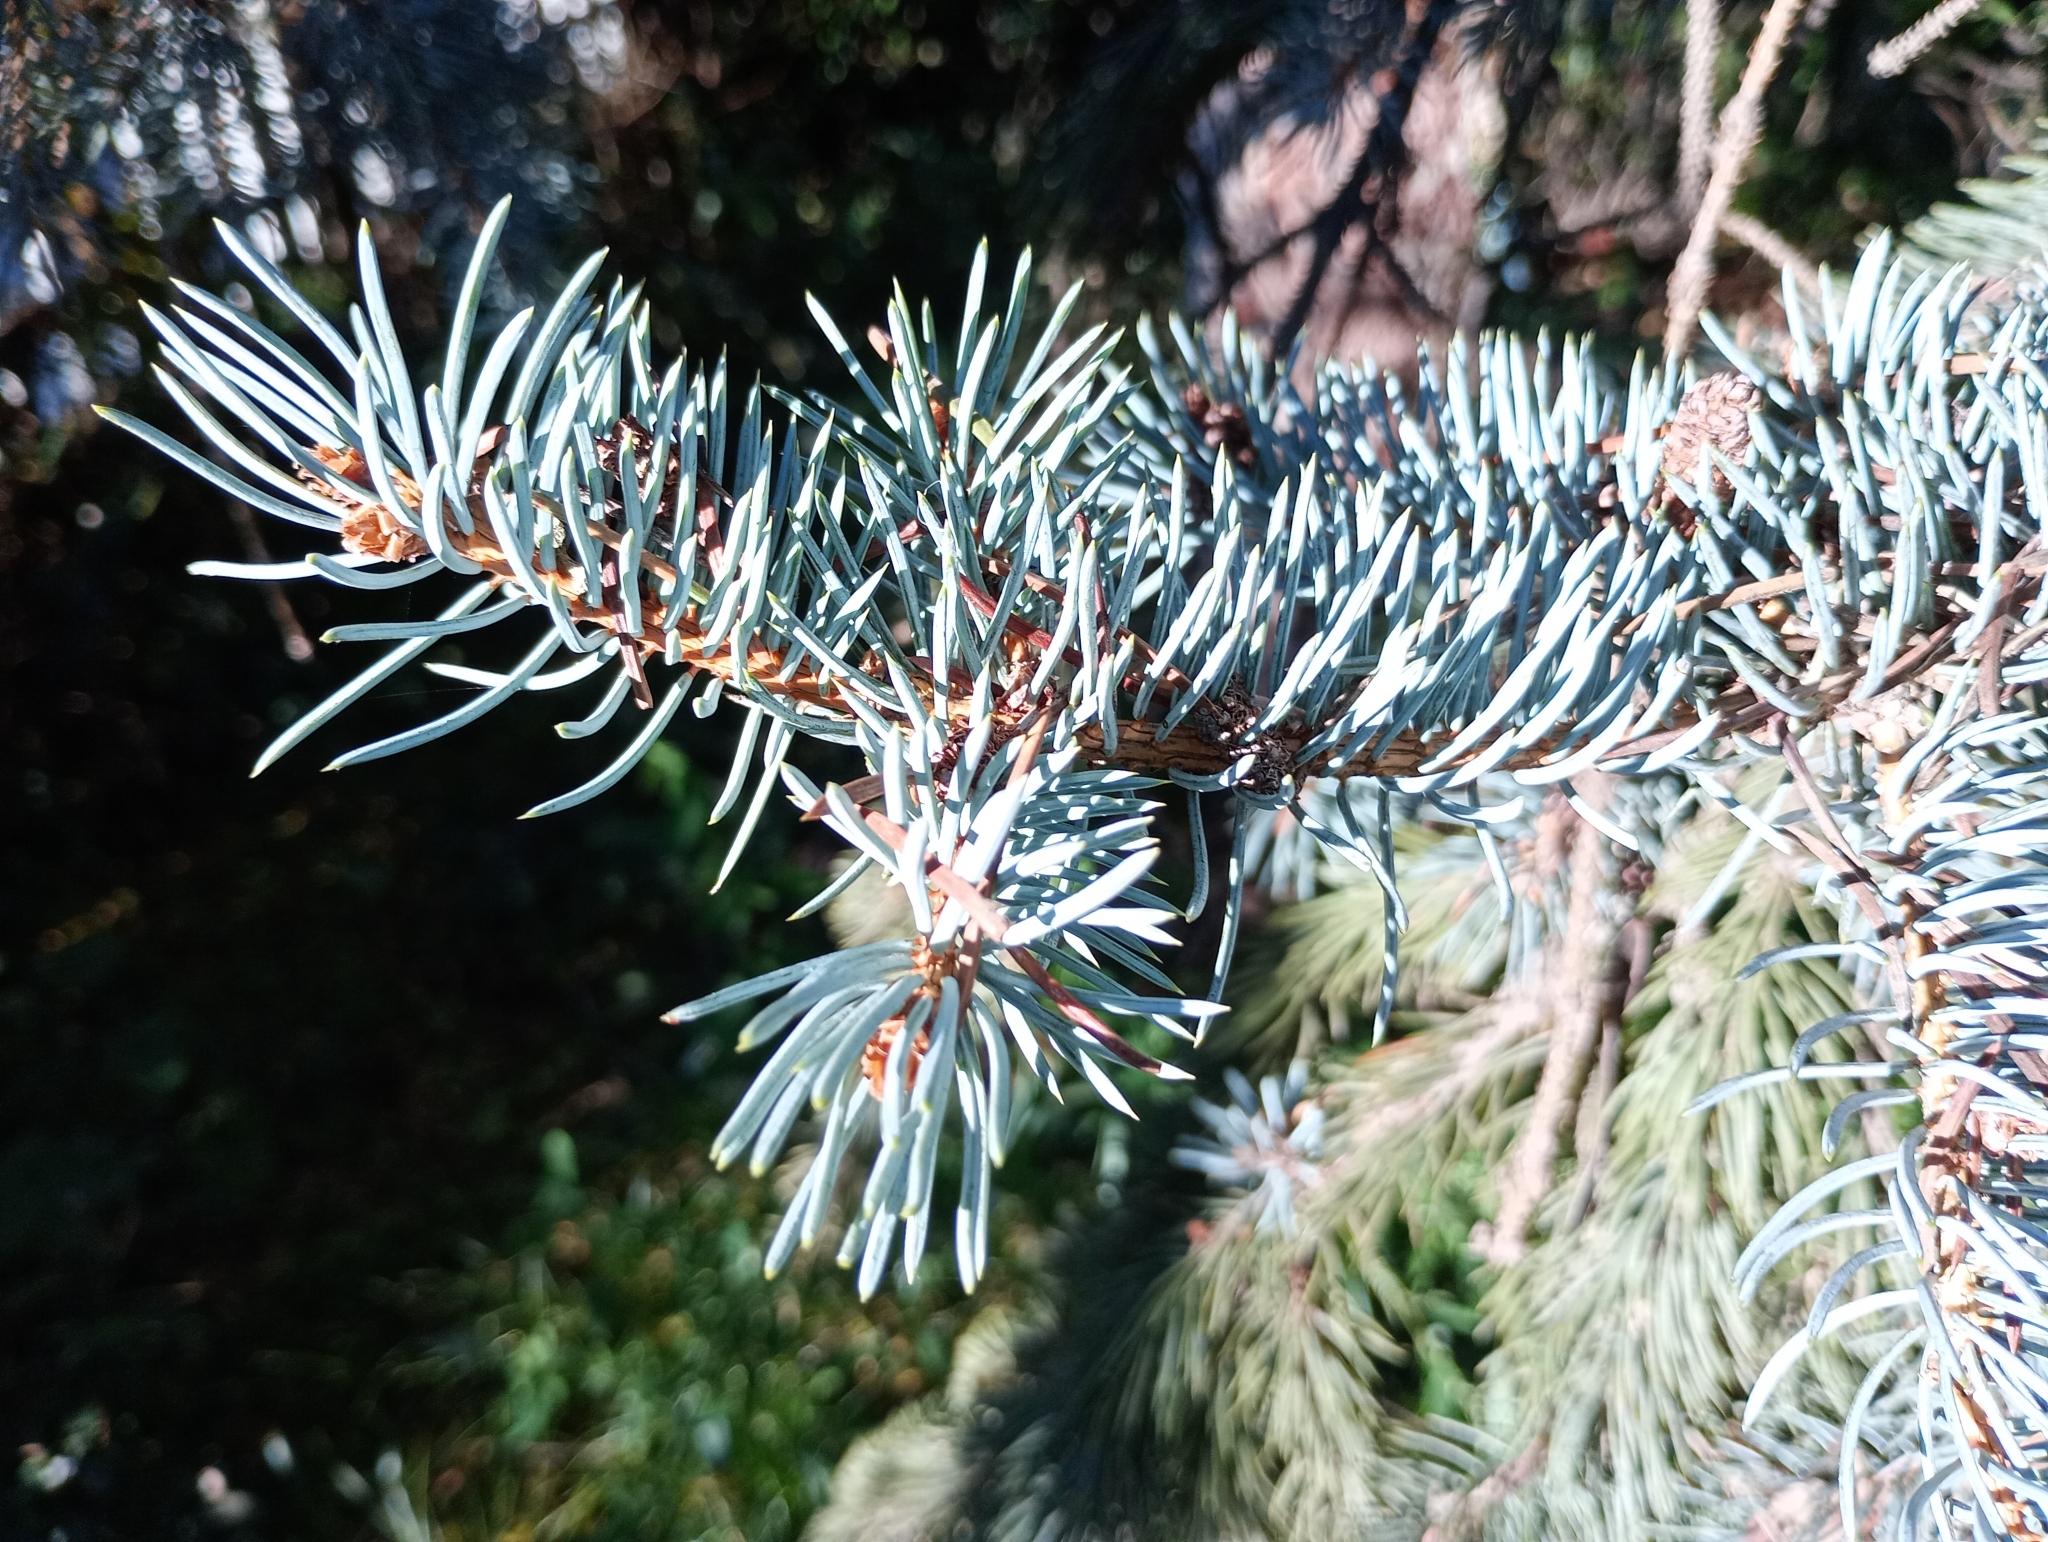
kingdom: Plantae
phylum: Tracheophyta
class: Pinopsida
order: Pinales
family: Pinaceae
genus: Picea
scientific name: Picea pungens
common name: Colorado spruce
